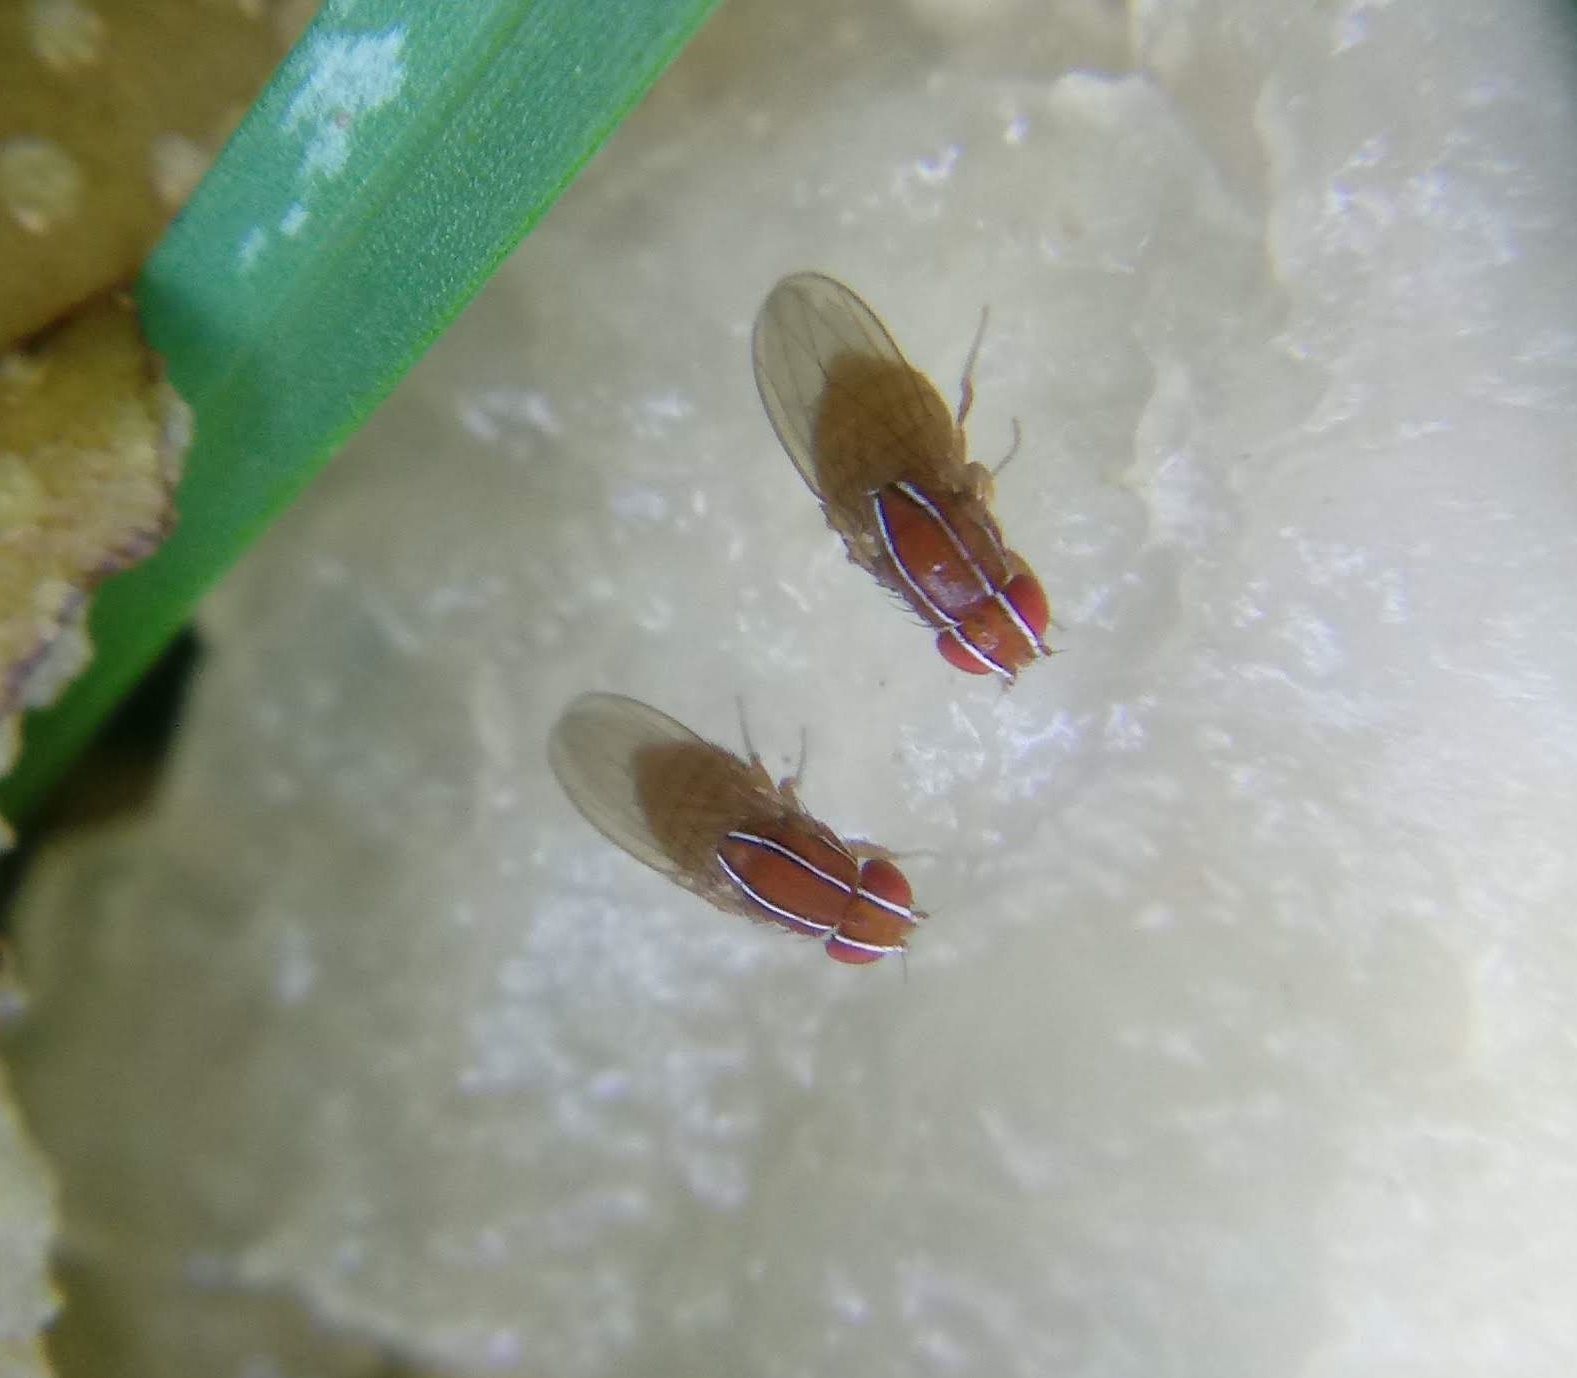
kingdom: Animalia
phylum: Arthropoda
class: Insecta
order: Diptera
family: Drosophilidae
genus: Zaprionus
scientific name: Zaprionus indianus
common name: African fig fly
